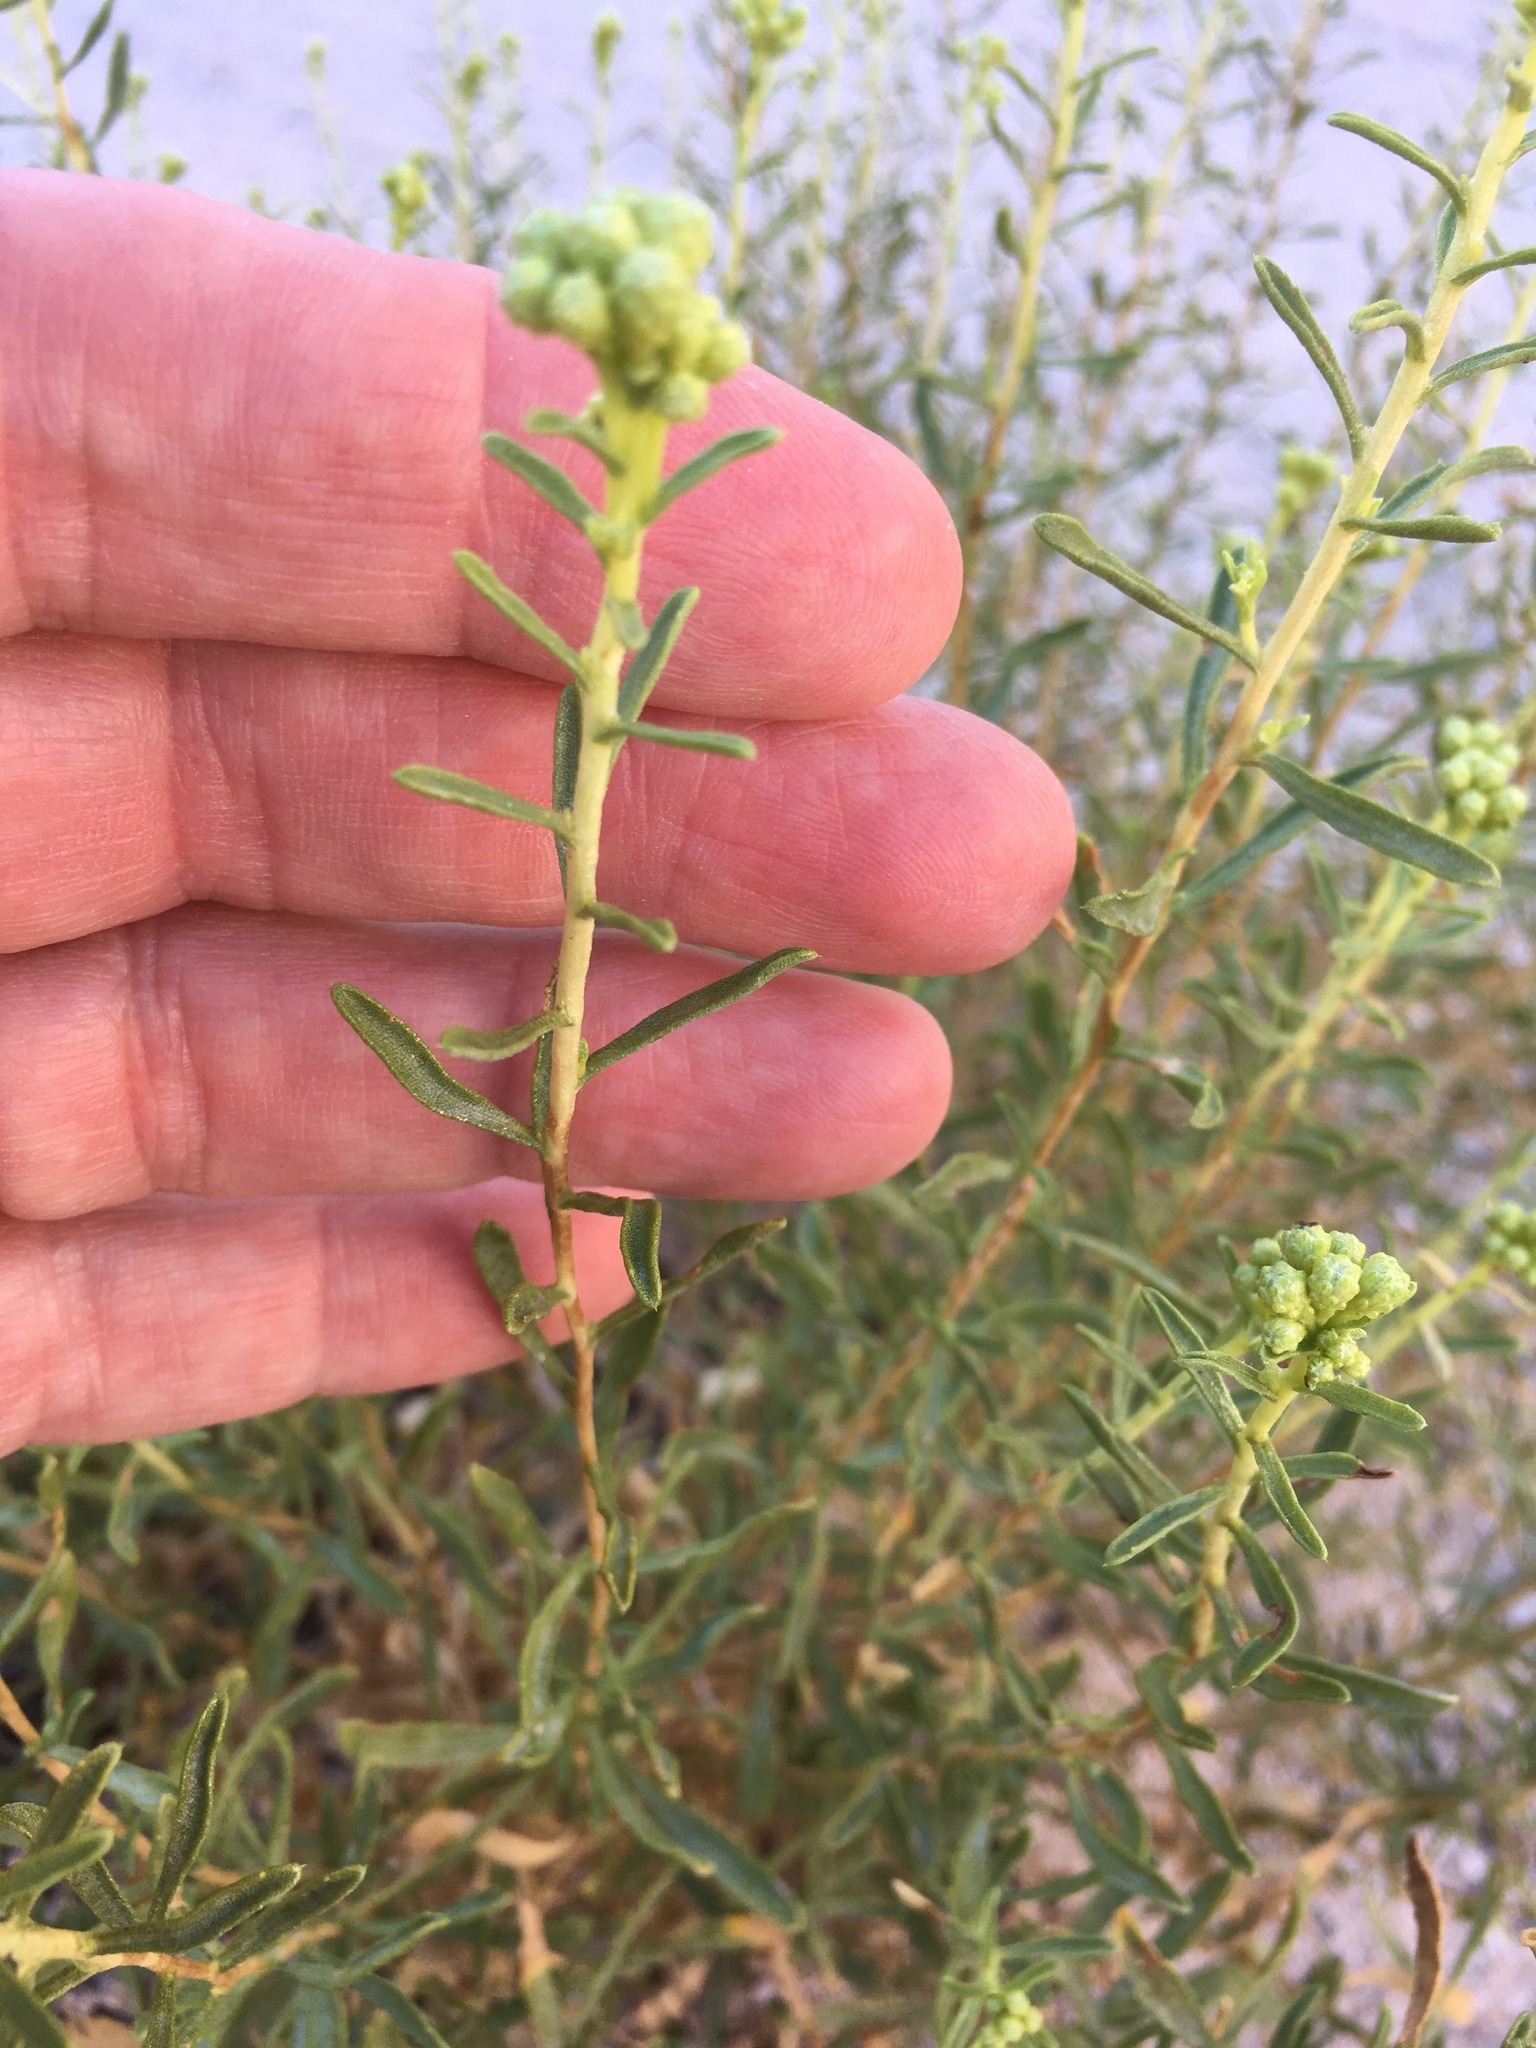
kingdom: Plantae
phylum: Tracheophyta
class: Magnoliopsida
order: Asterales
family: Asteraceae
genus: Isocoma
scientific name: Isocoma acradenia
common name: Alkali jimmyweed
